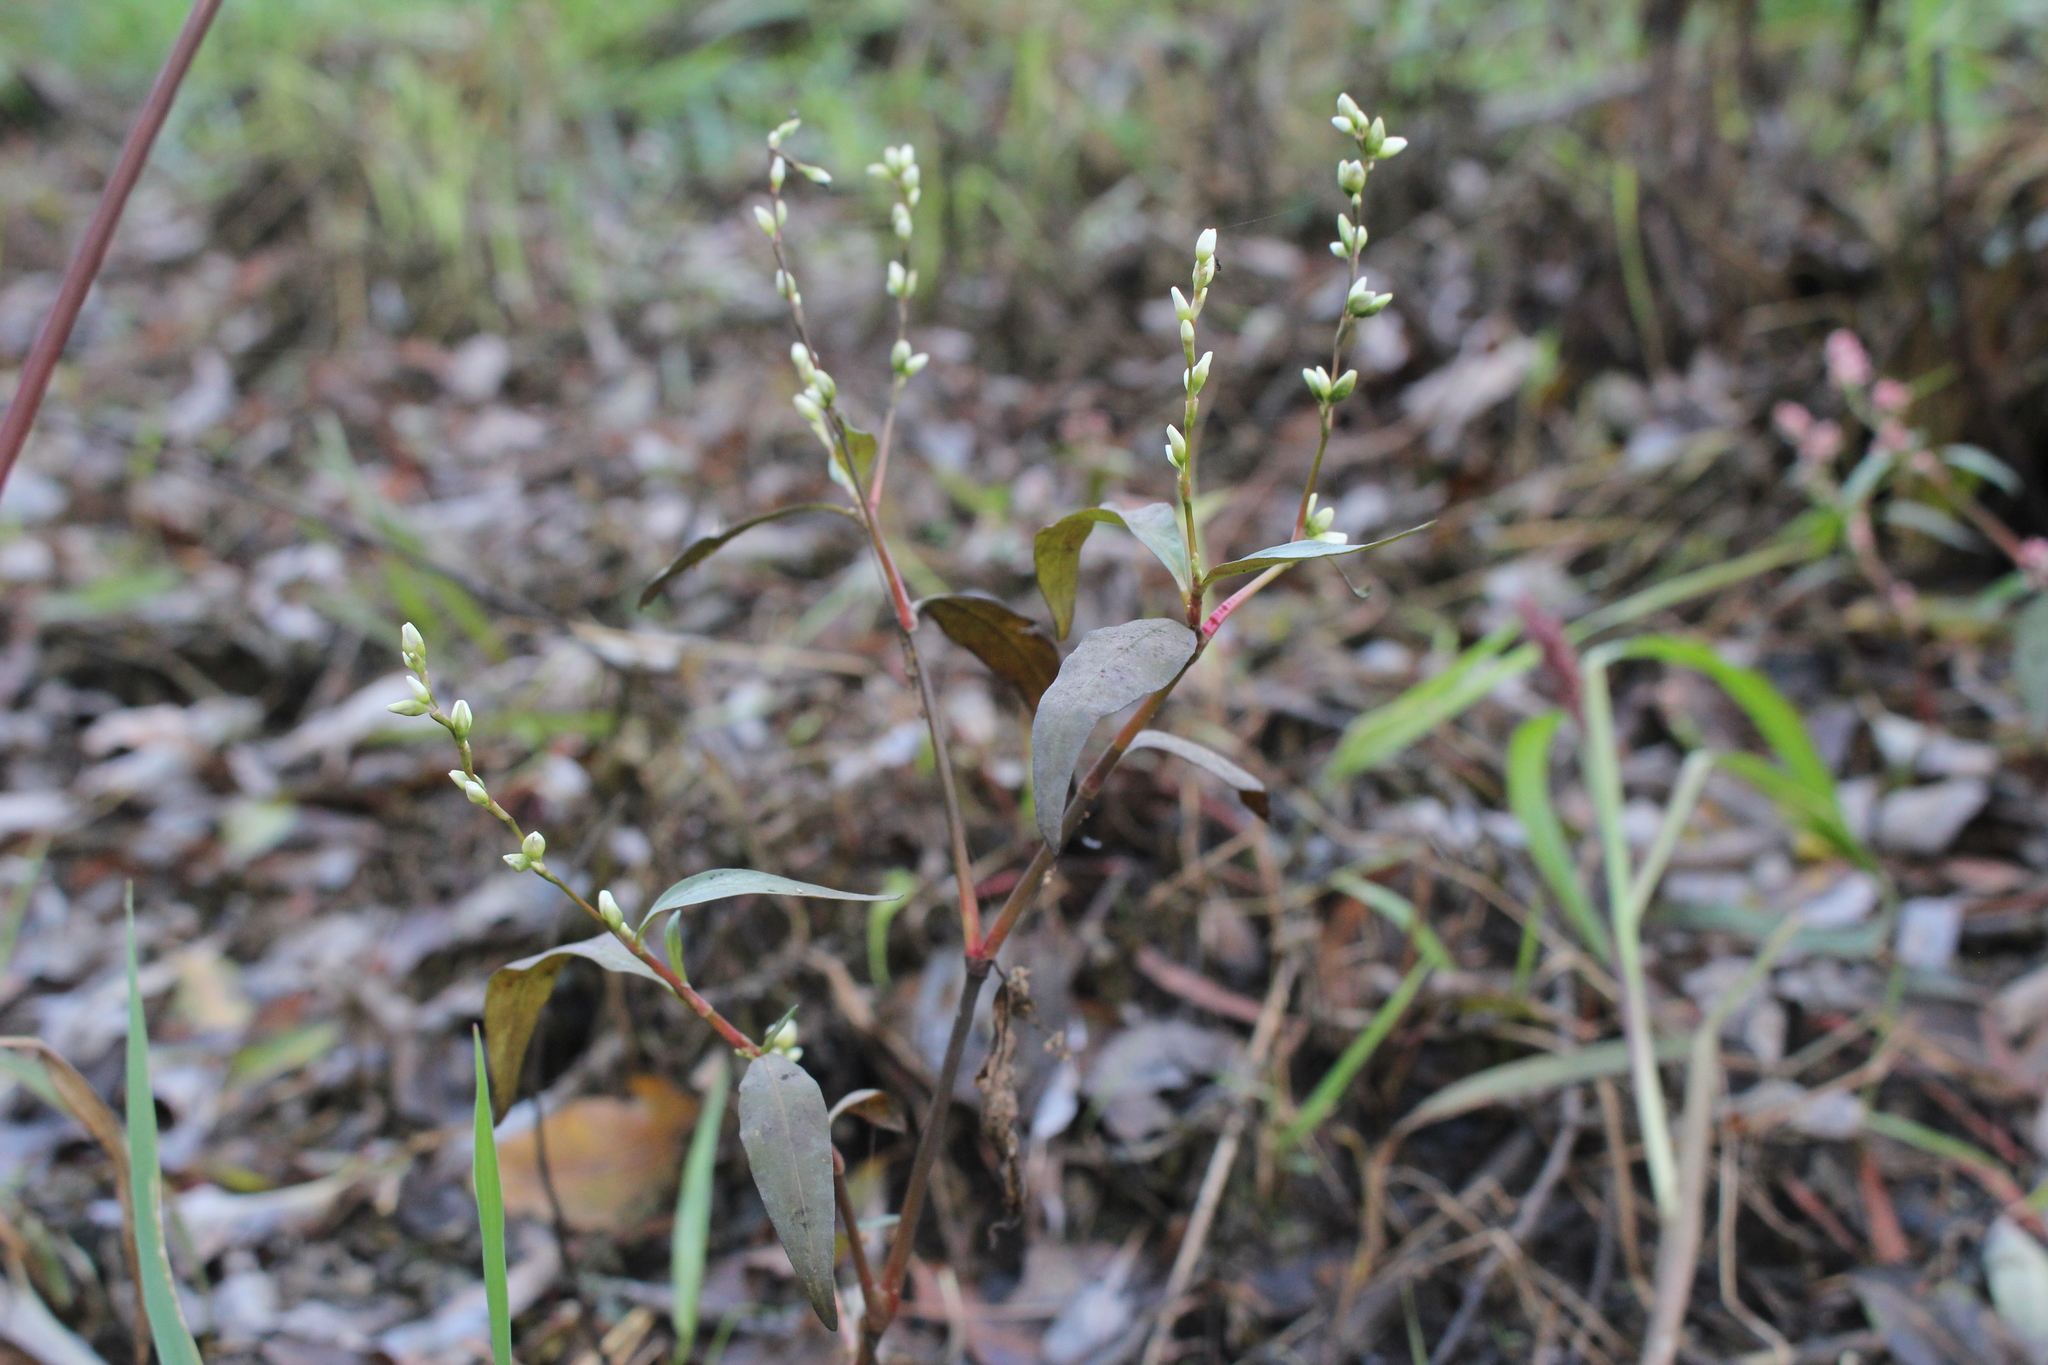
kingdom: Plantae
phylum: Tracheophyta
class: Magnoliopsida
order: Caryophyllales
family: Polygonaceae
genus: Persicaria
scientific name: Persicaria punctata
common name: Dotted smartweed
